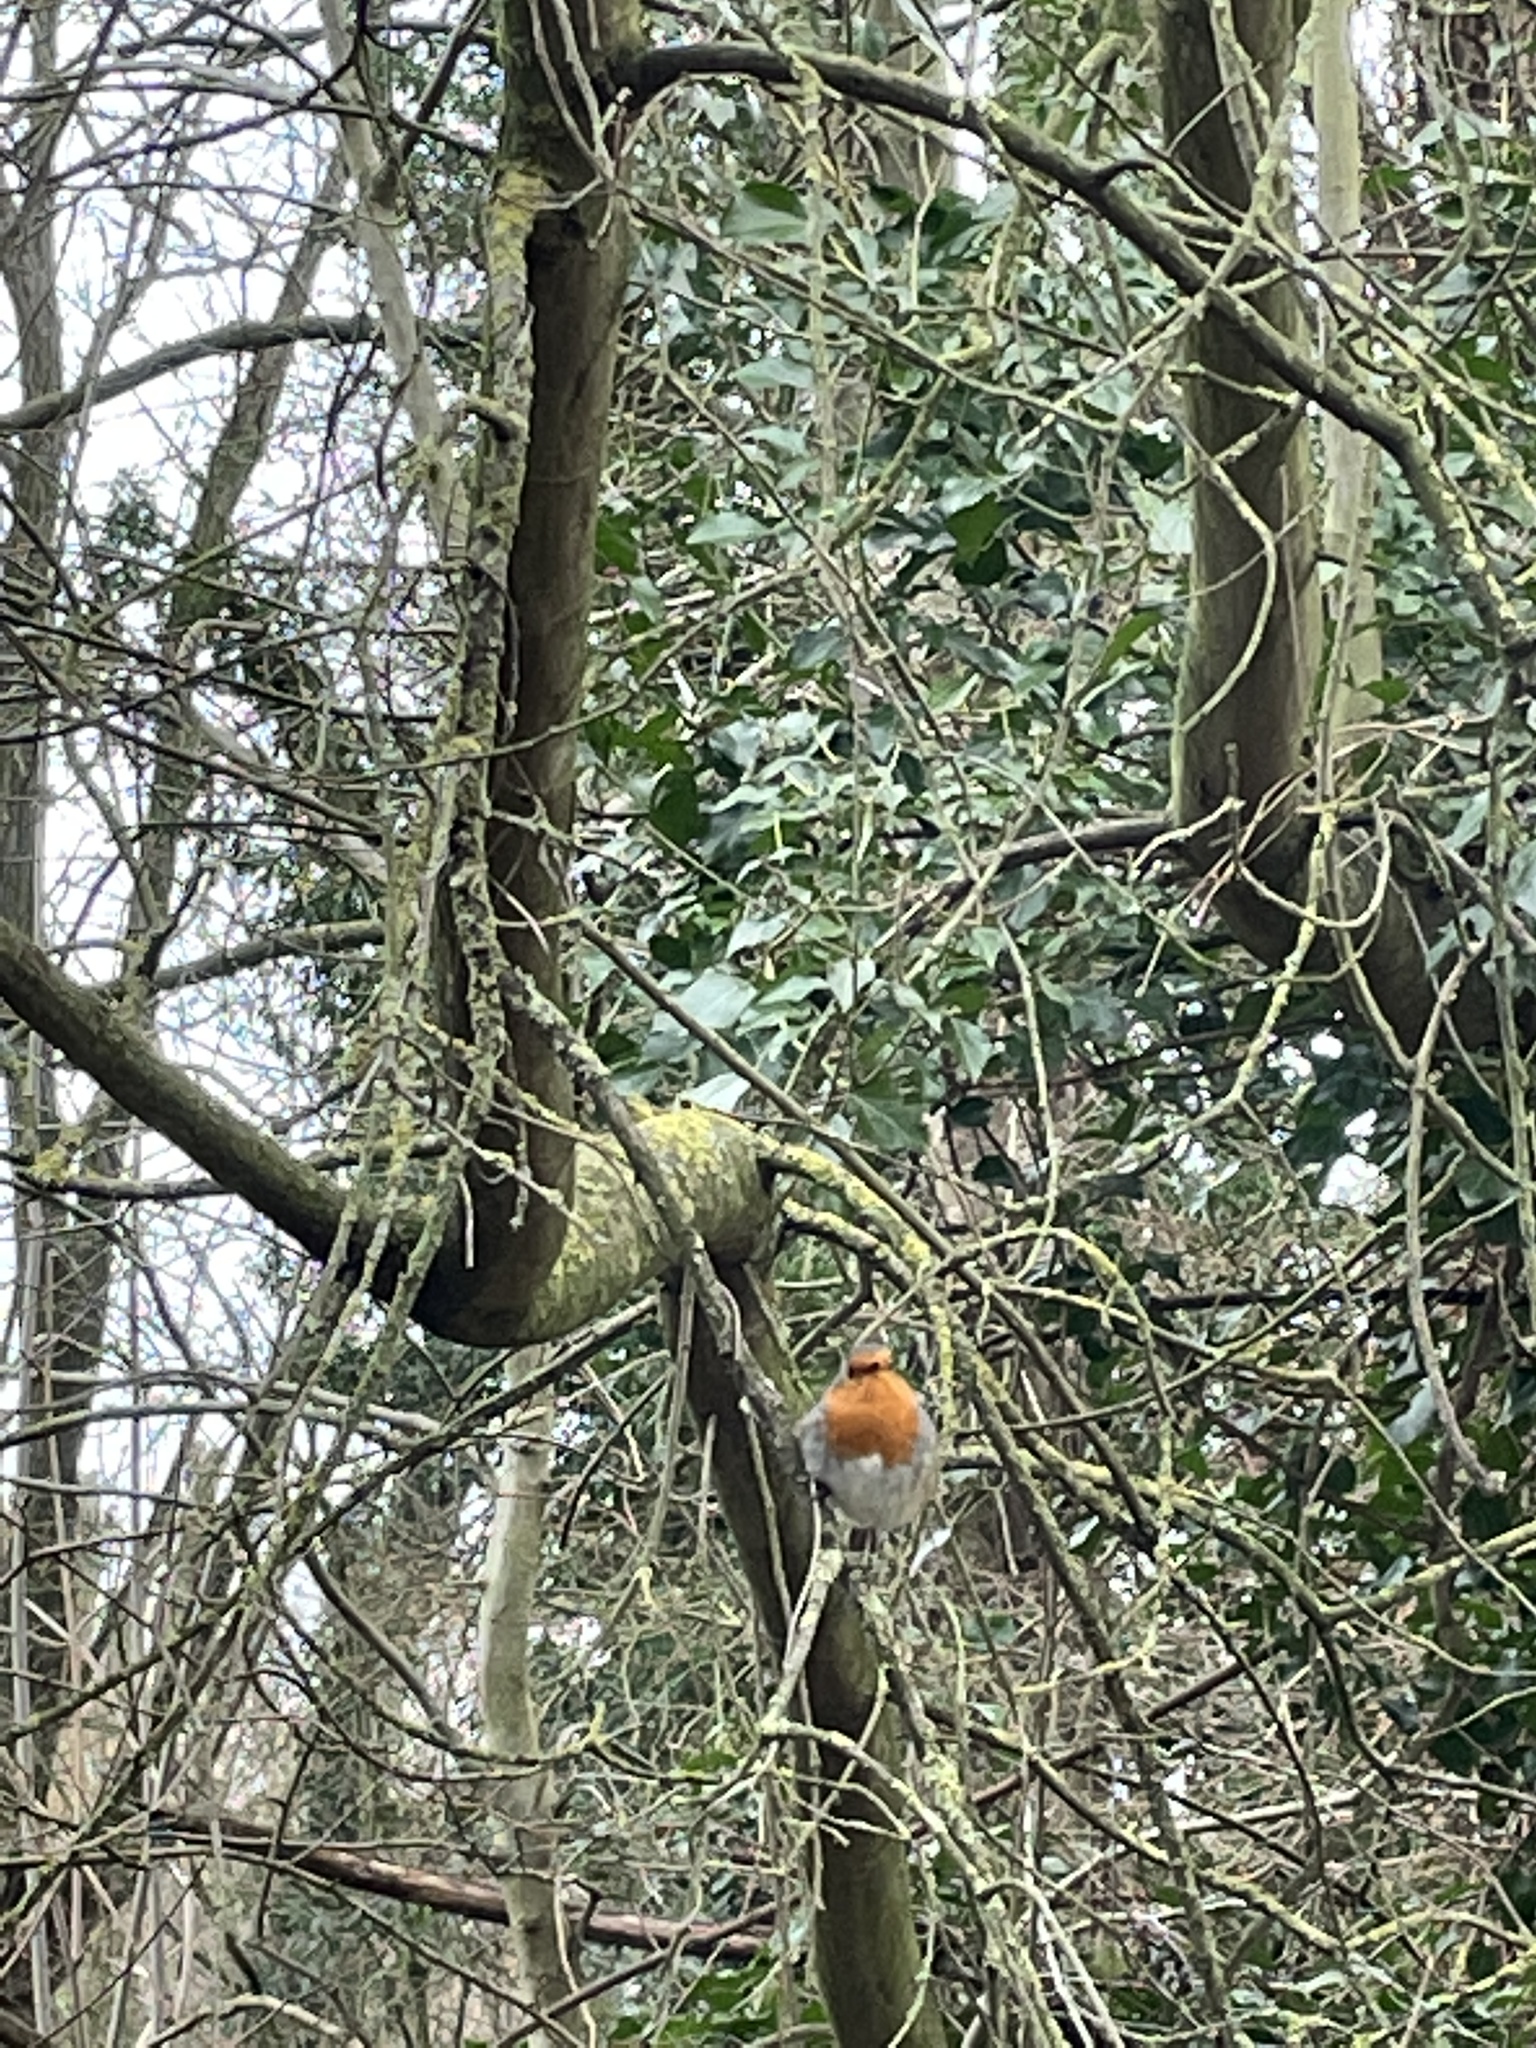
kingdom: Animalia
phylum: Chordata
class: Aves
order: Passeriformes
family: Muscicapidae
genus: Erithacus
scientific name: Erithacus rubecula
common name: European robin
